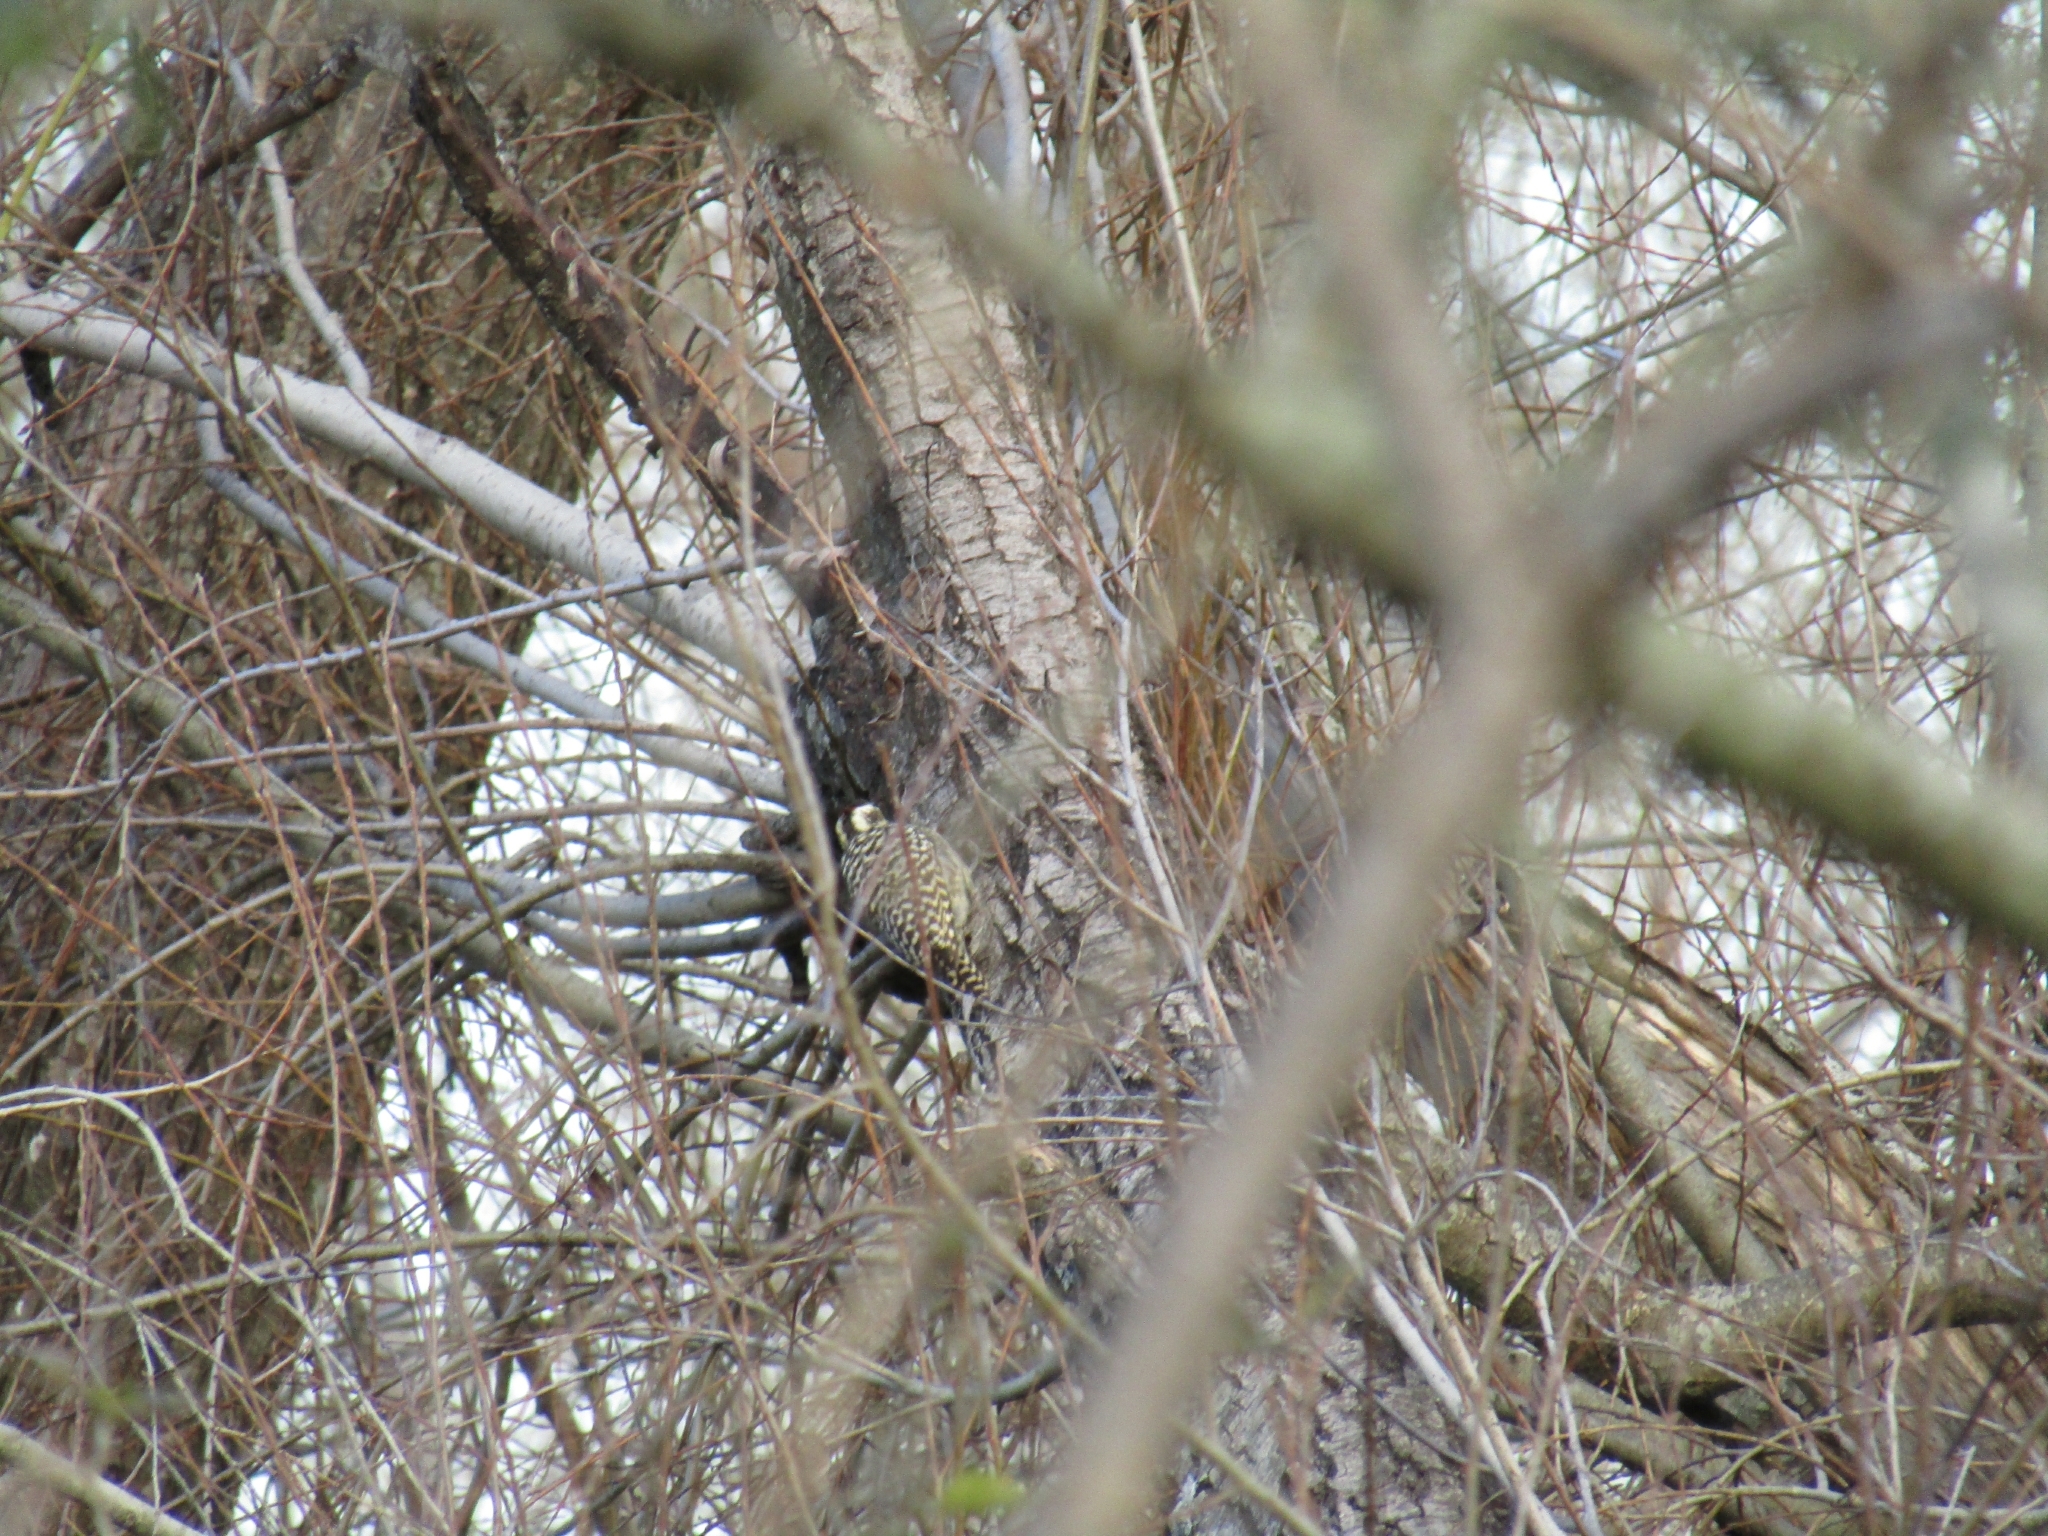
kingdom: Animalia
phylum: Chordata
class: Aves
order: Piciformes
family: Picidae
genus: Veniliornis
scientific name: Veniliornis mixtus
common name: Checkered woodpecker
